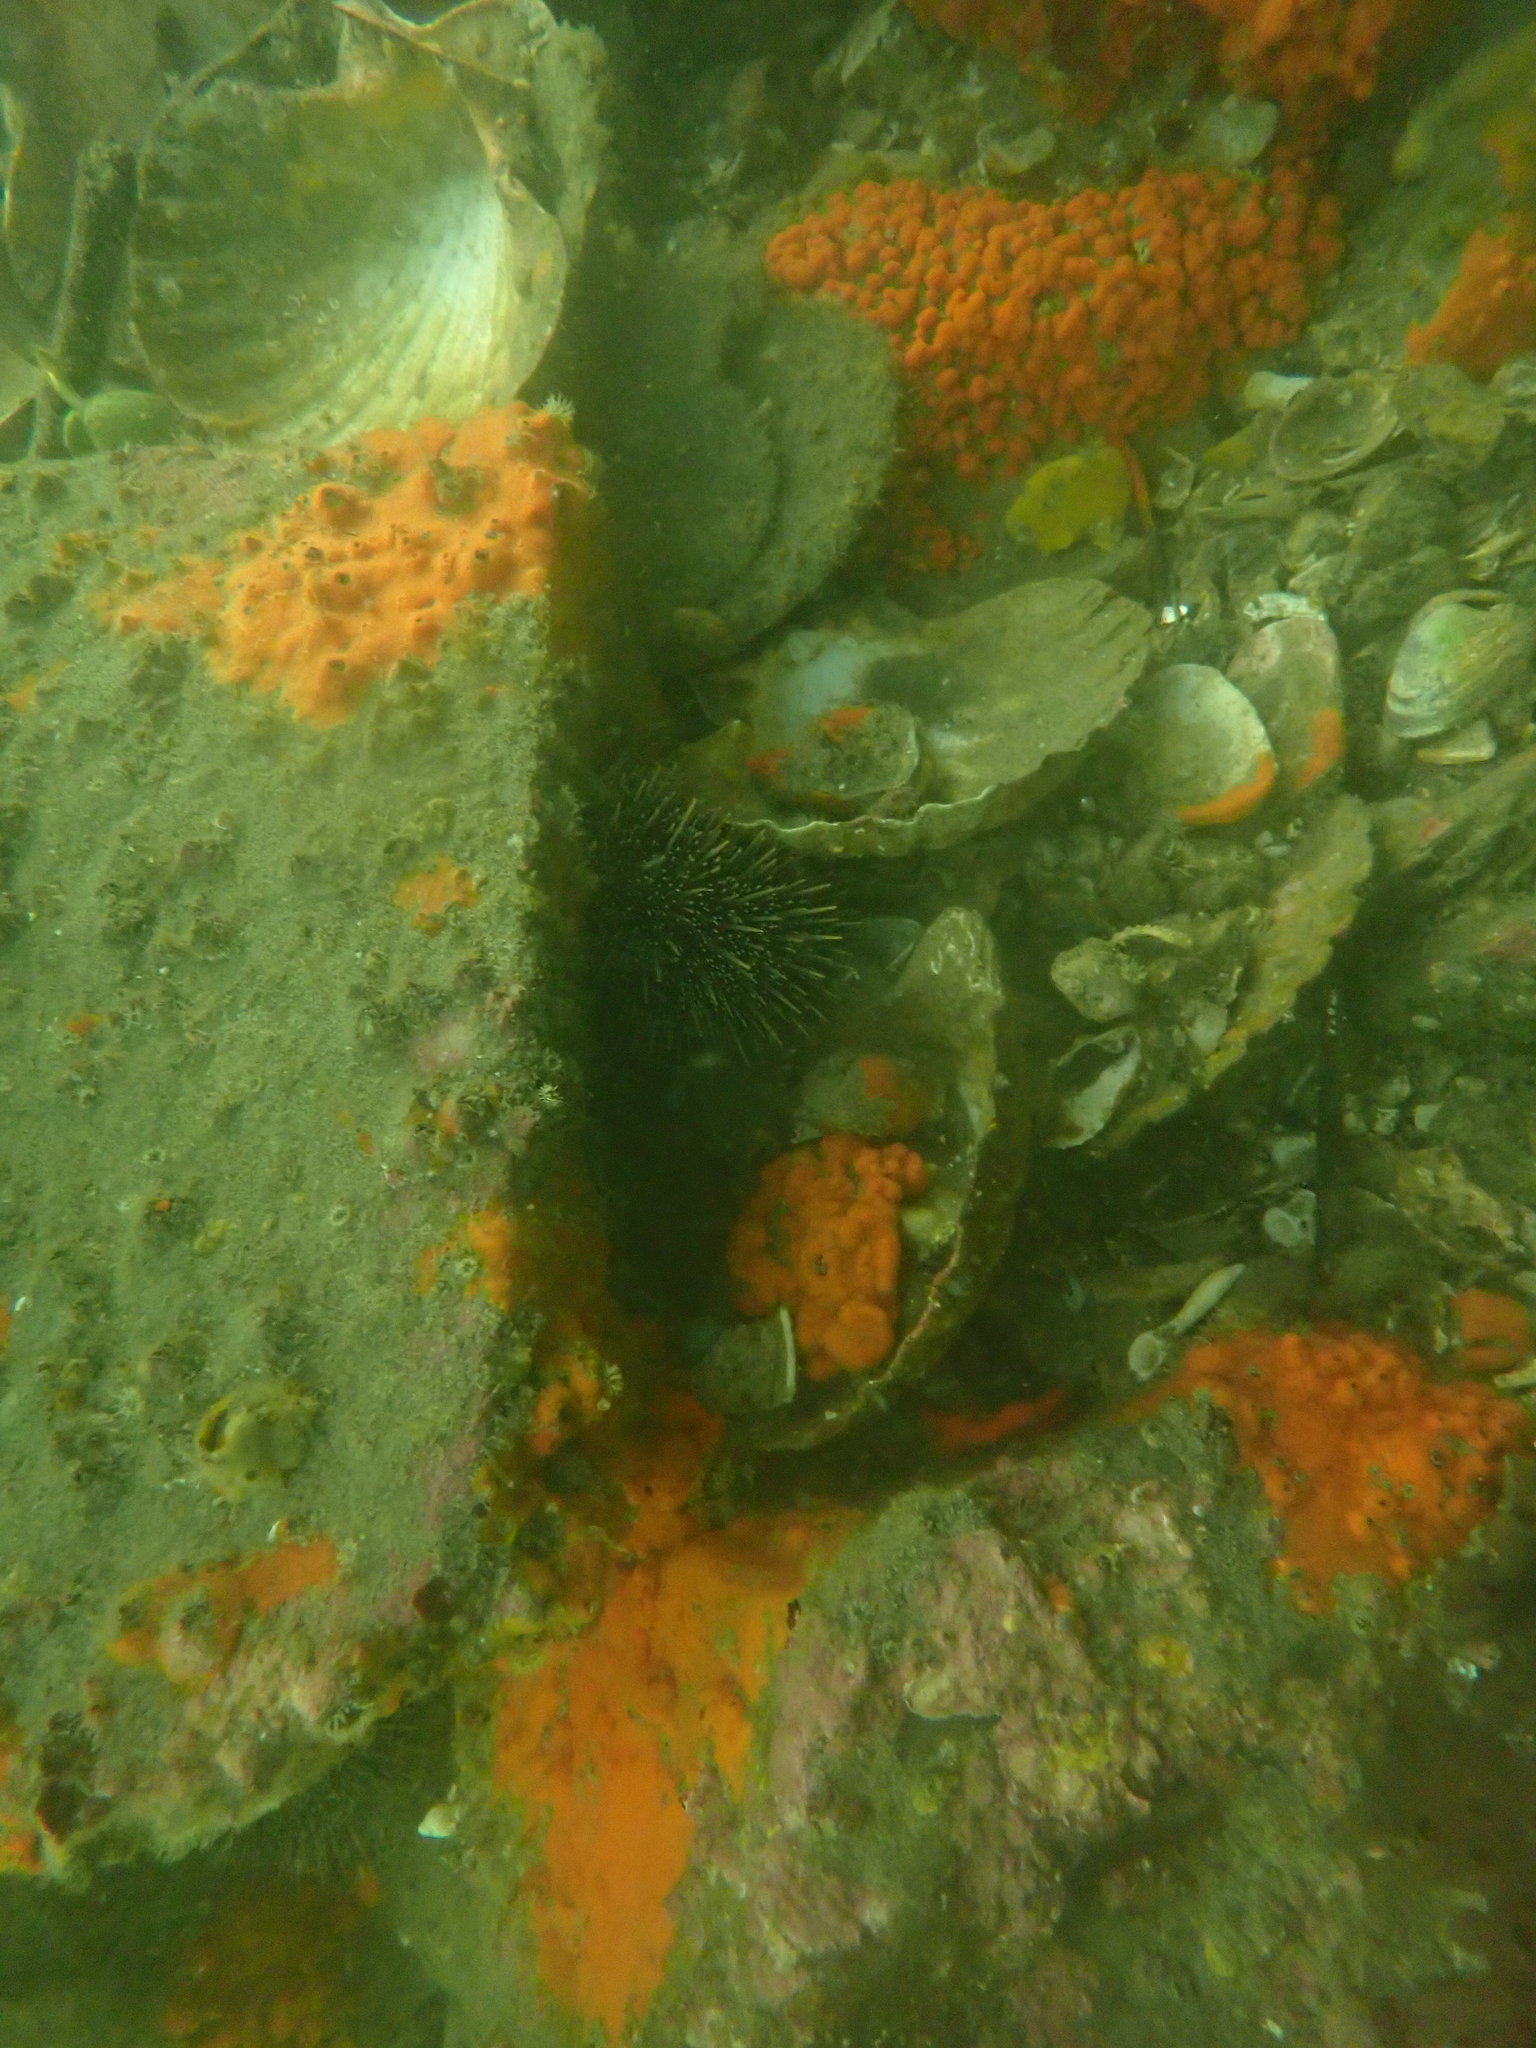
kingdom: Animalia
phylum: Echinodermata
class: Echinoidea
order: Camarodonta
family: Echinometridae
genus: Evechinus
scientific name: Evechinus chloroticus
